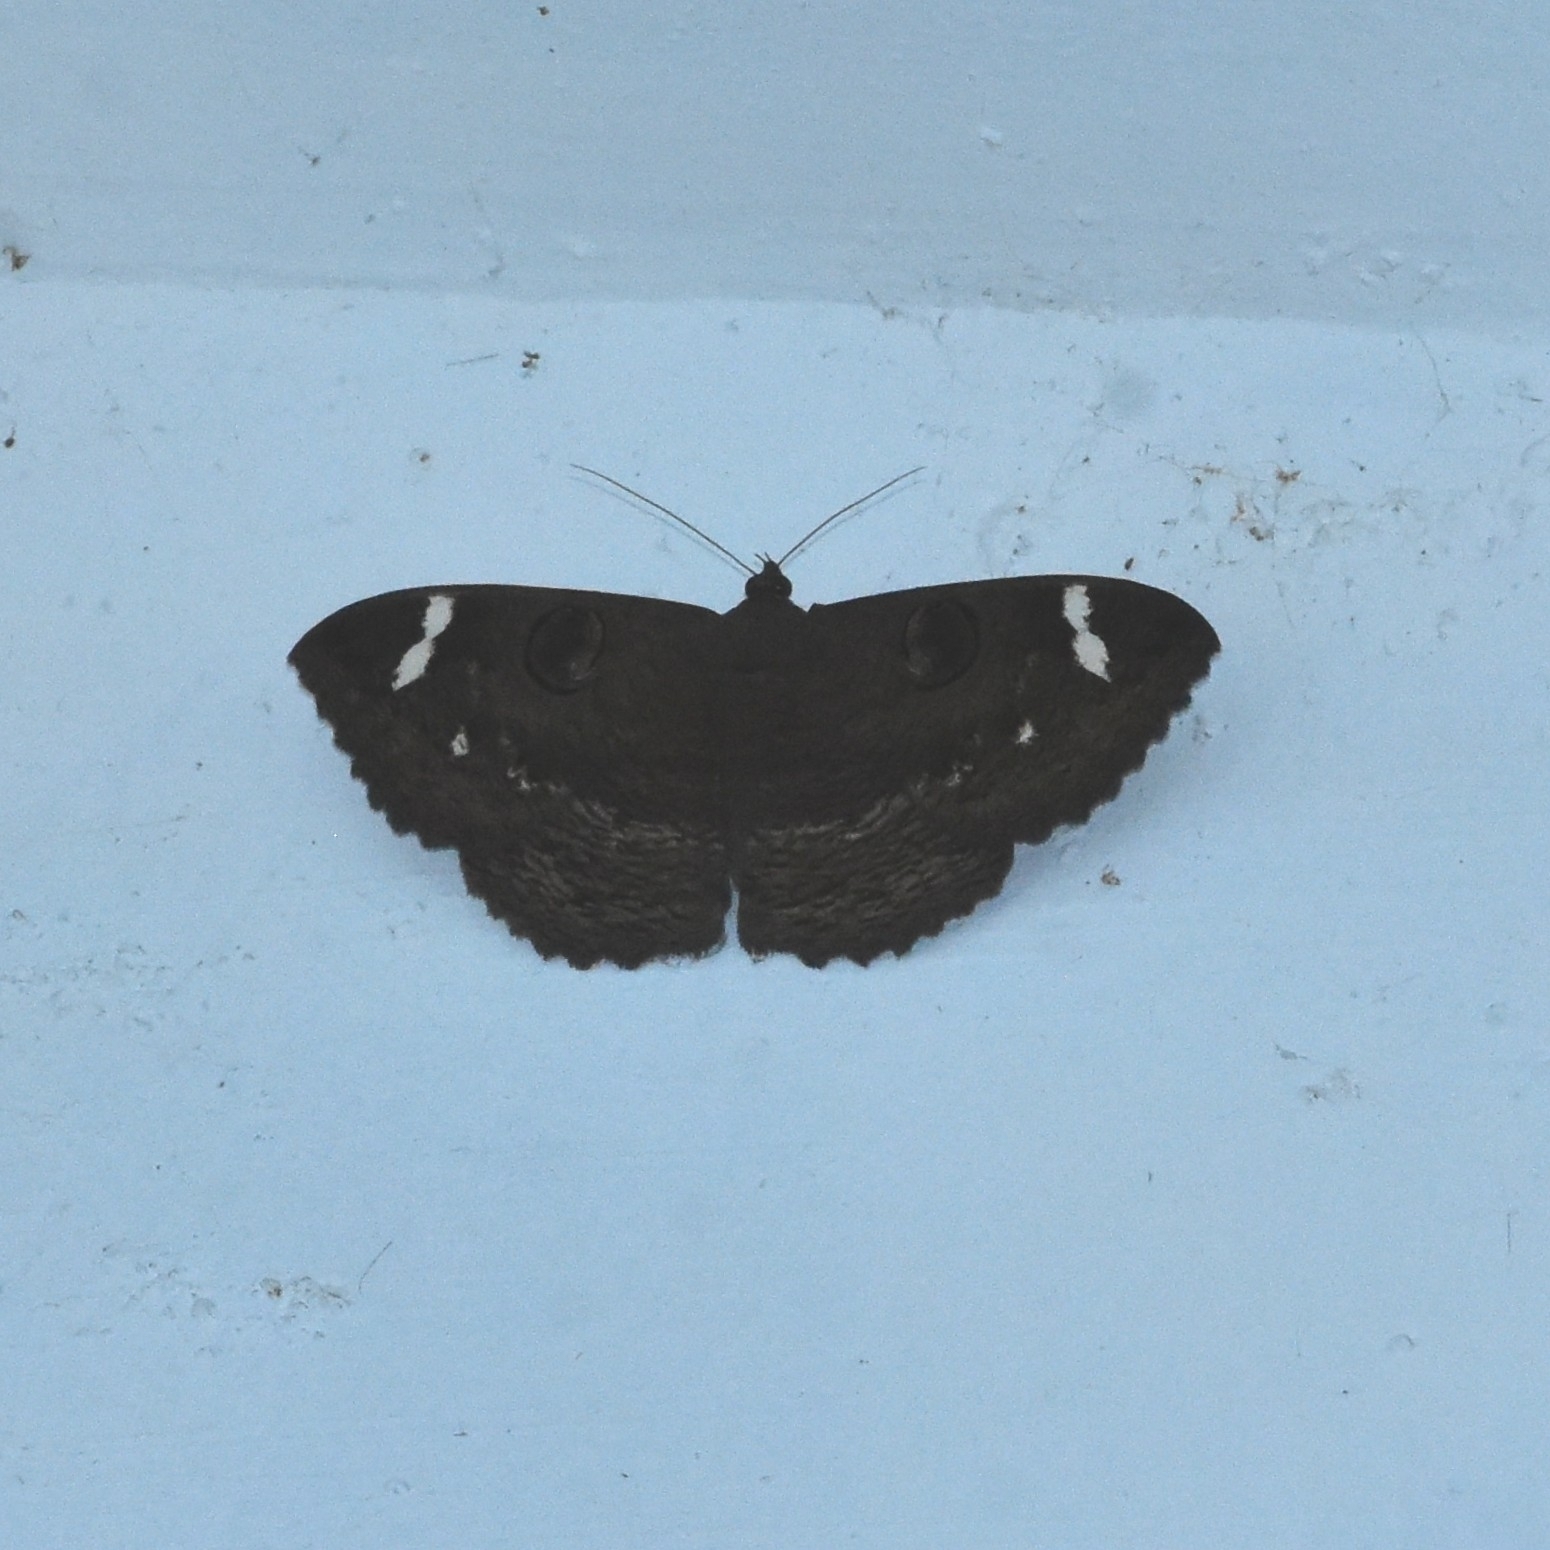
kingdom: Animalia
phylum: Arthropoda
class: Insecta
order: Lepidoptera
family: Erebidae
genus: Erebus
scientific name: Erebus hieroglyphica
